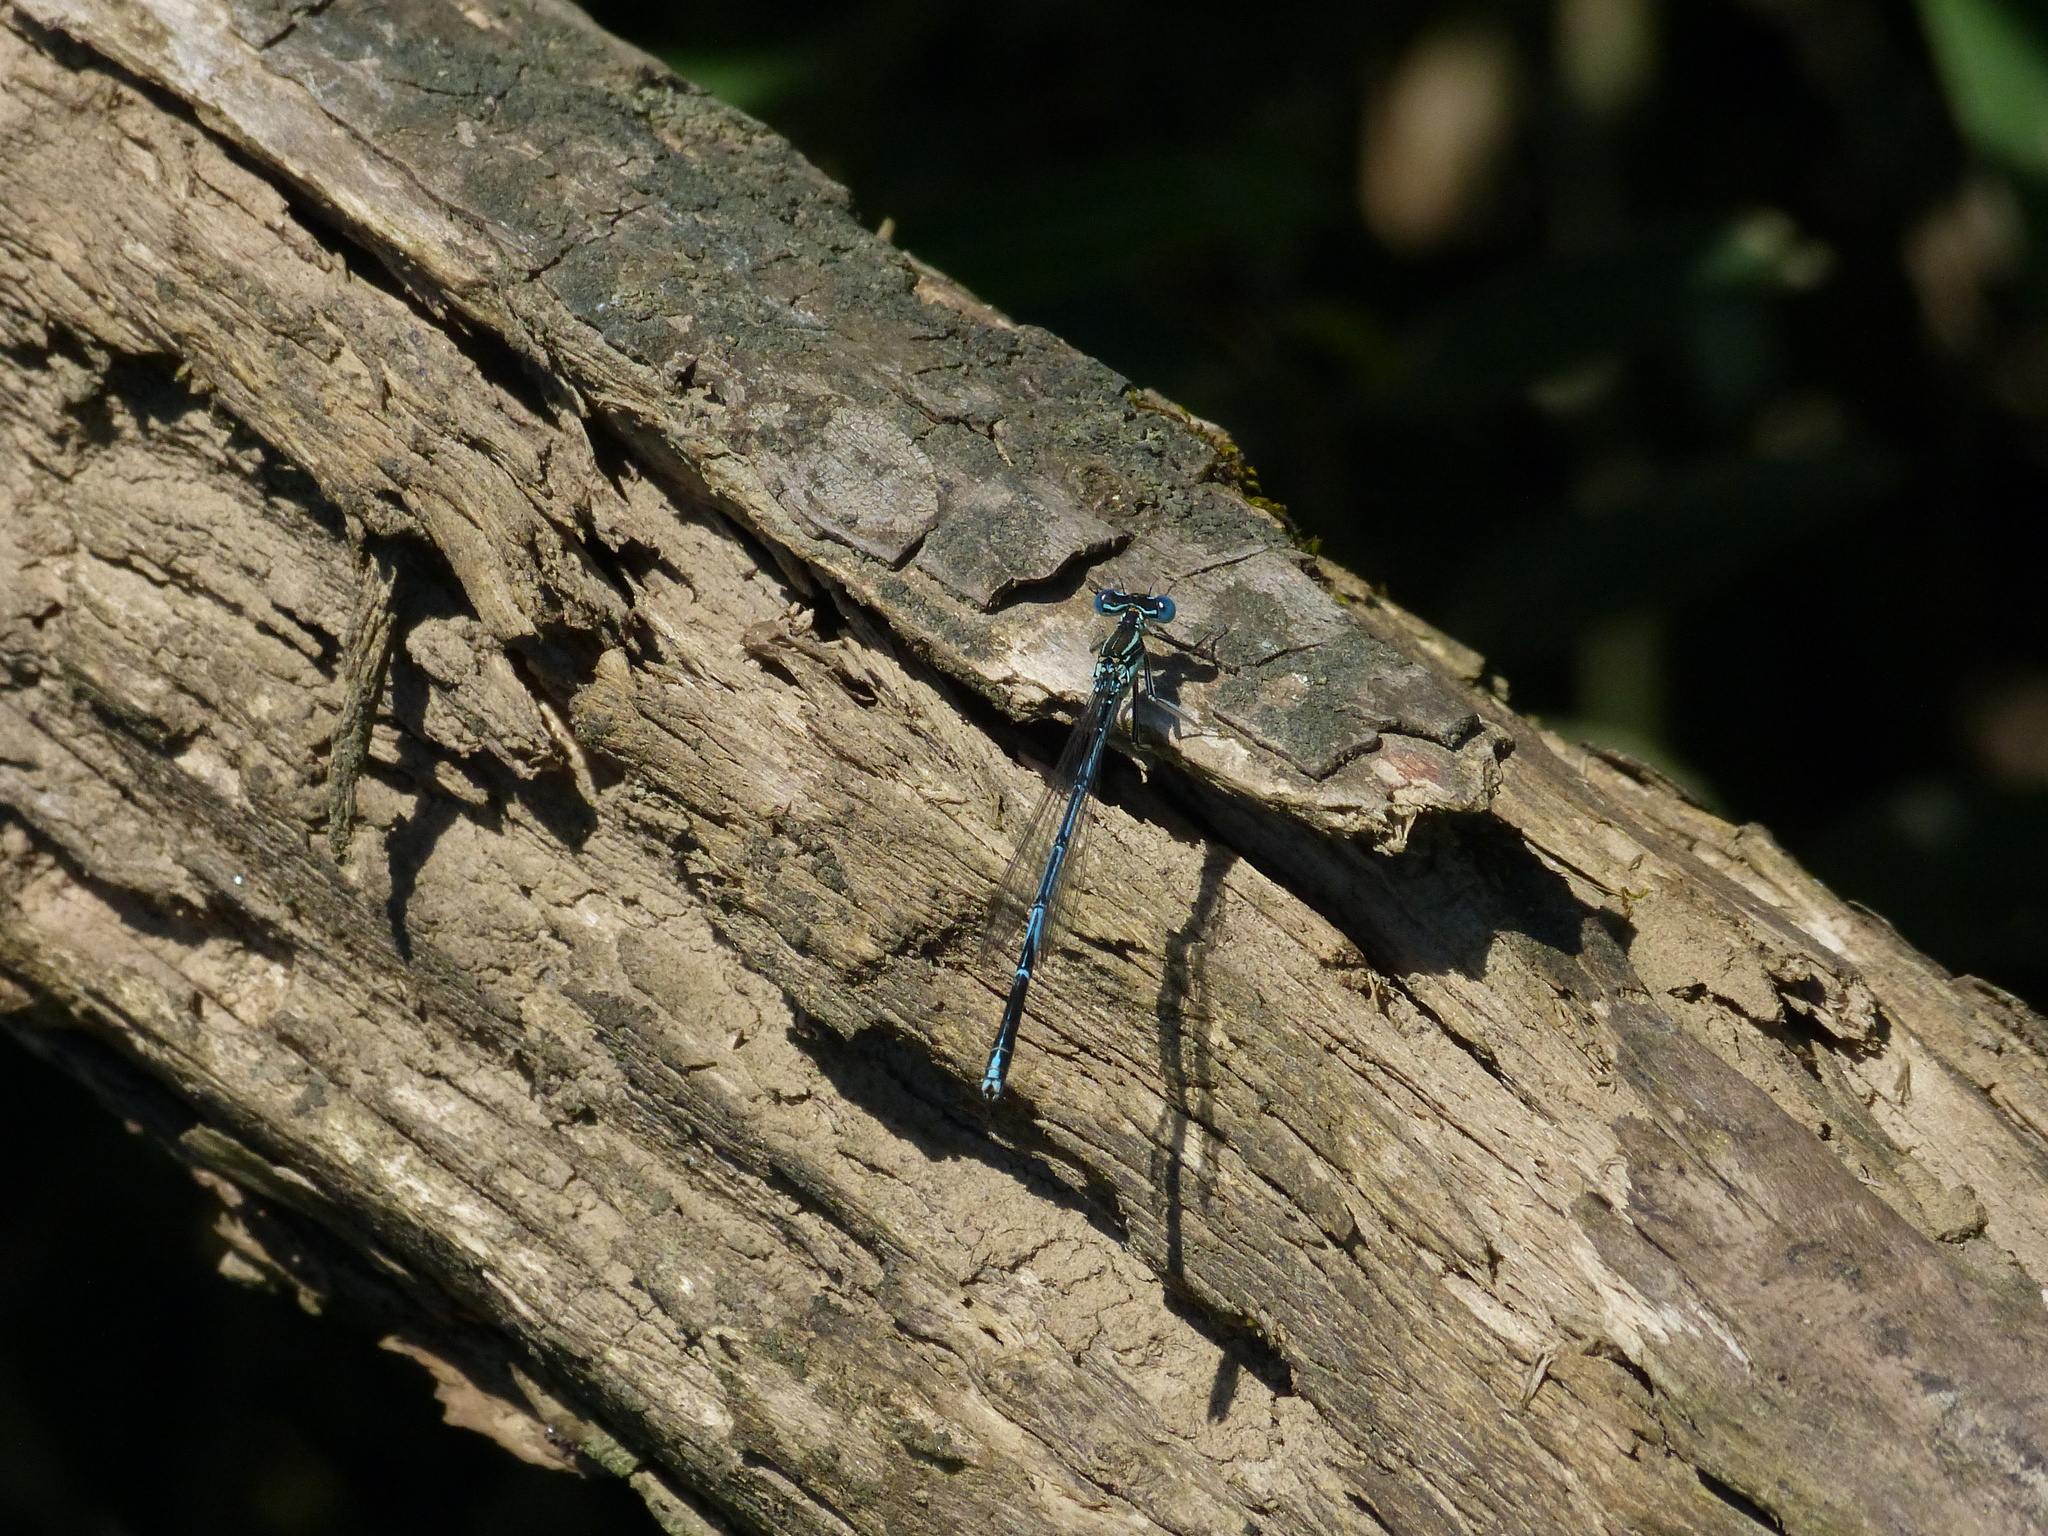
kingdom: Animalia
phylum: Arthropoda
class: Insecta
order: Odonata
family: Platycnemididae
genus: Platycnemis
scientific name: Platycnemis pennipes
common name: White-legged damselfly
